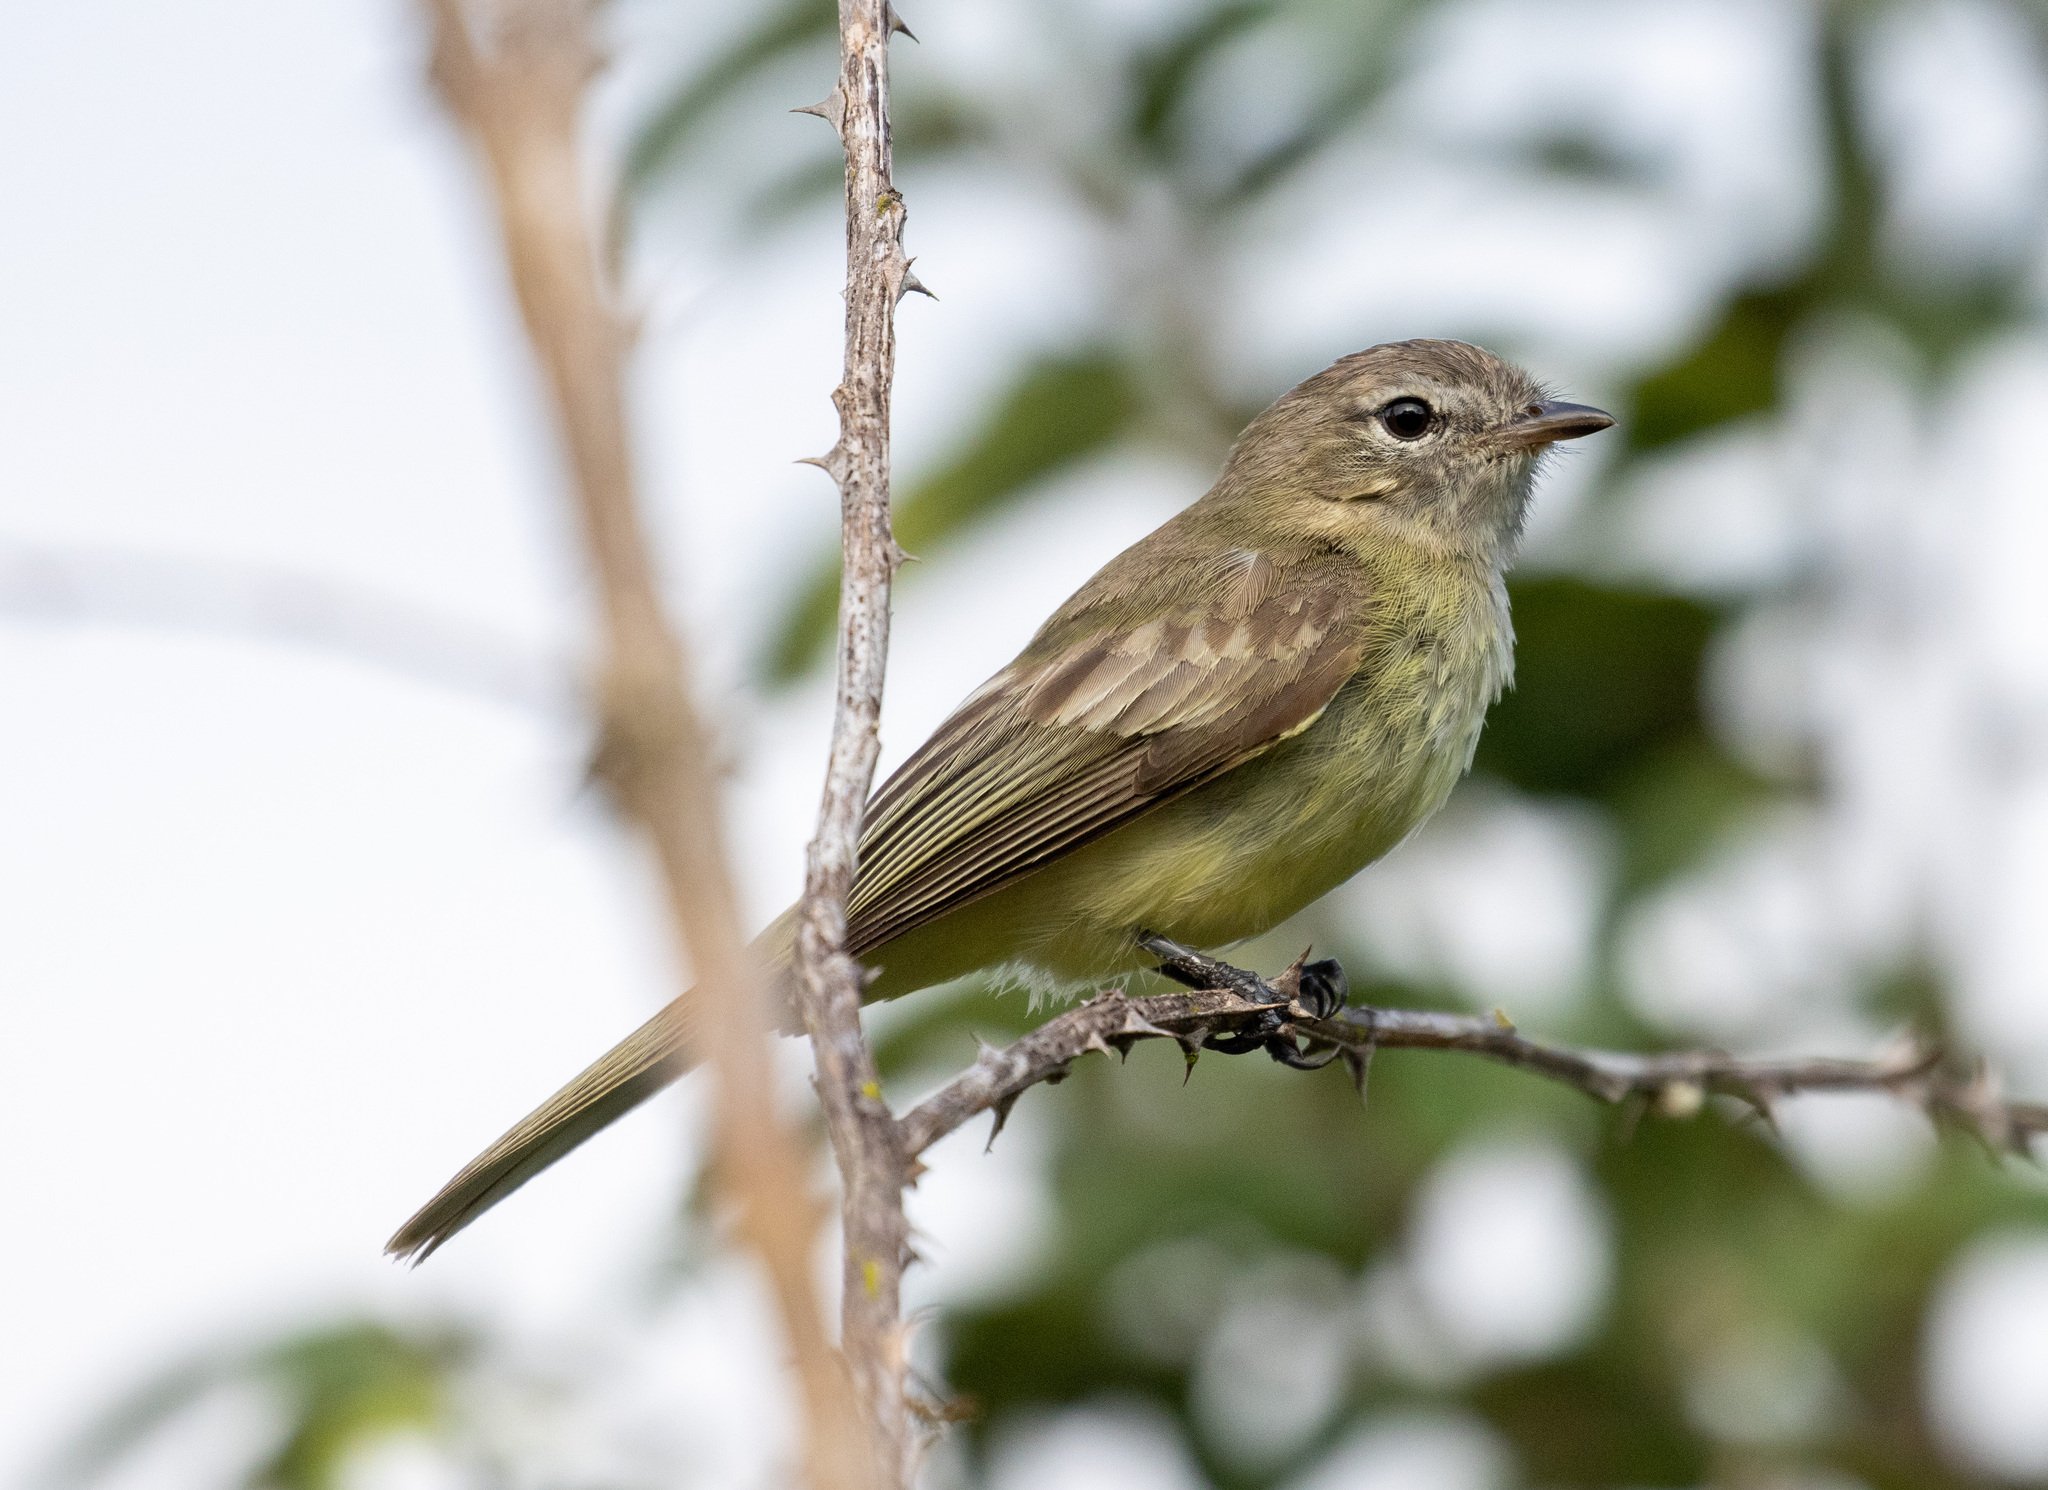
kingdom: Animalia
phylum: Chordata
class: Aves
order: Passeriformes
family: Tyrannidae
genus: Myiopagis
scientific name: Myiopagis viridicata
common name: Greenish elaenia
